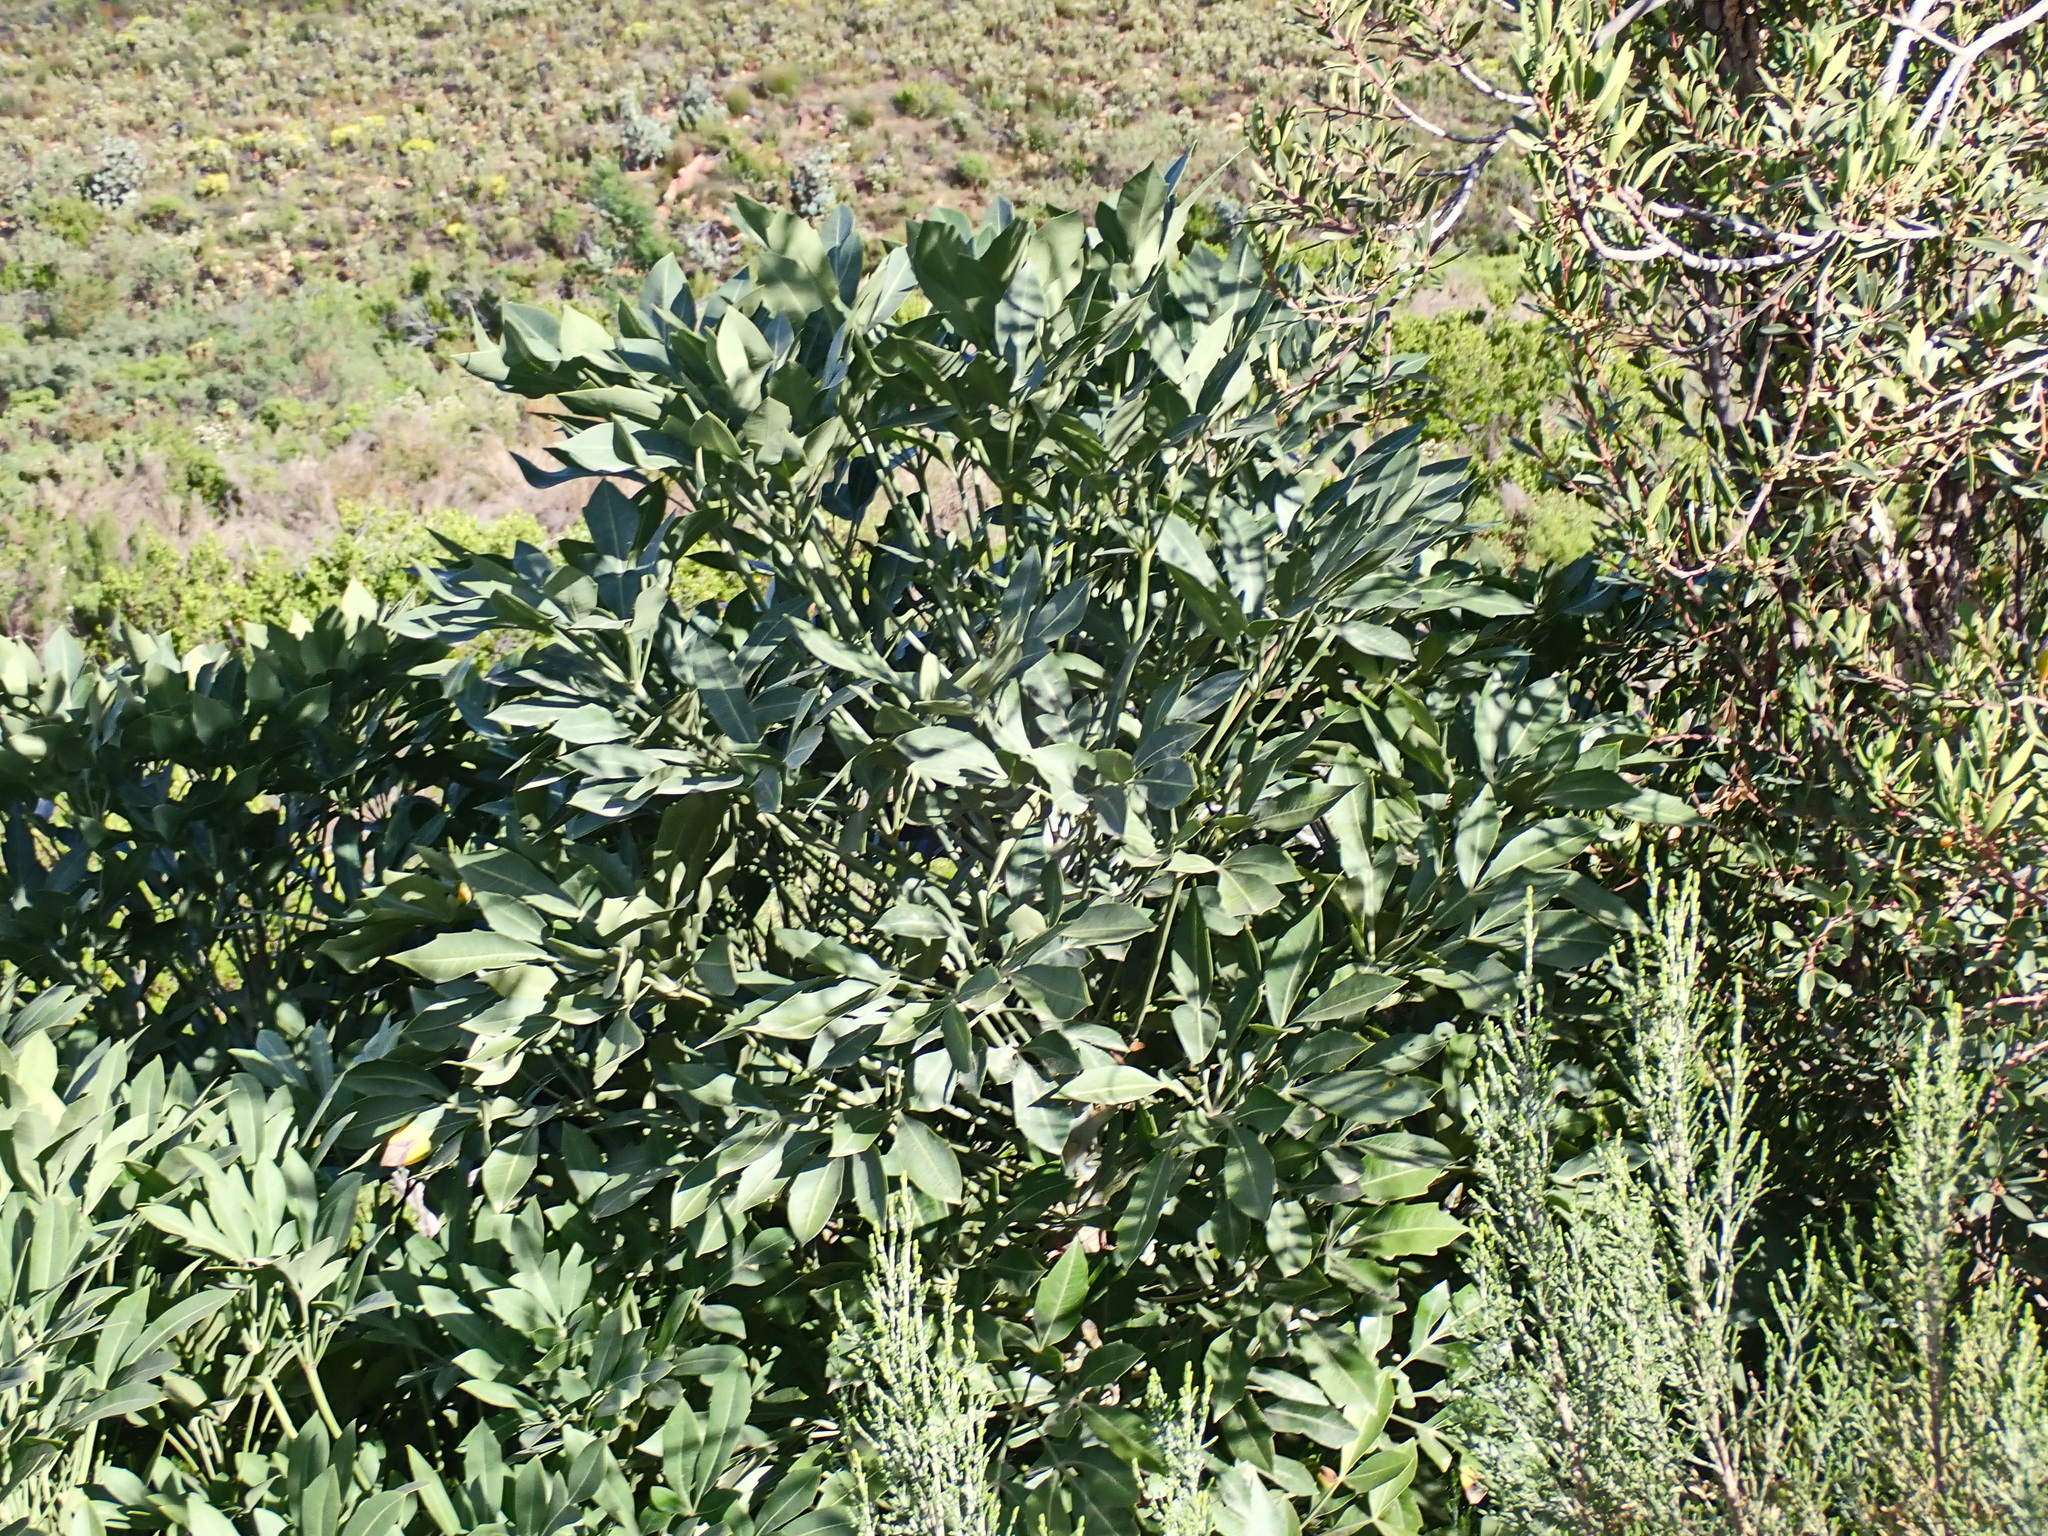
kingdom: Plantae
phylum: Tracheophyta
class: Magnoliopsida
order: Apiales
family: Araliaceae
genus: Cussonia
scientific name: Cussonia paniculata
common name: Cabbagetree
